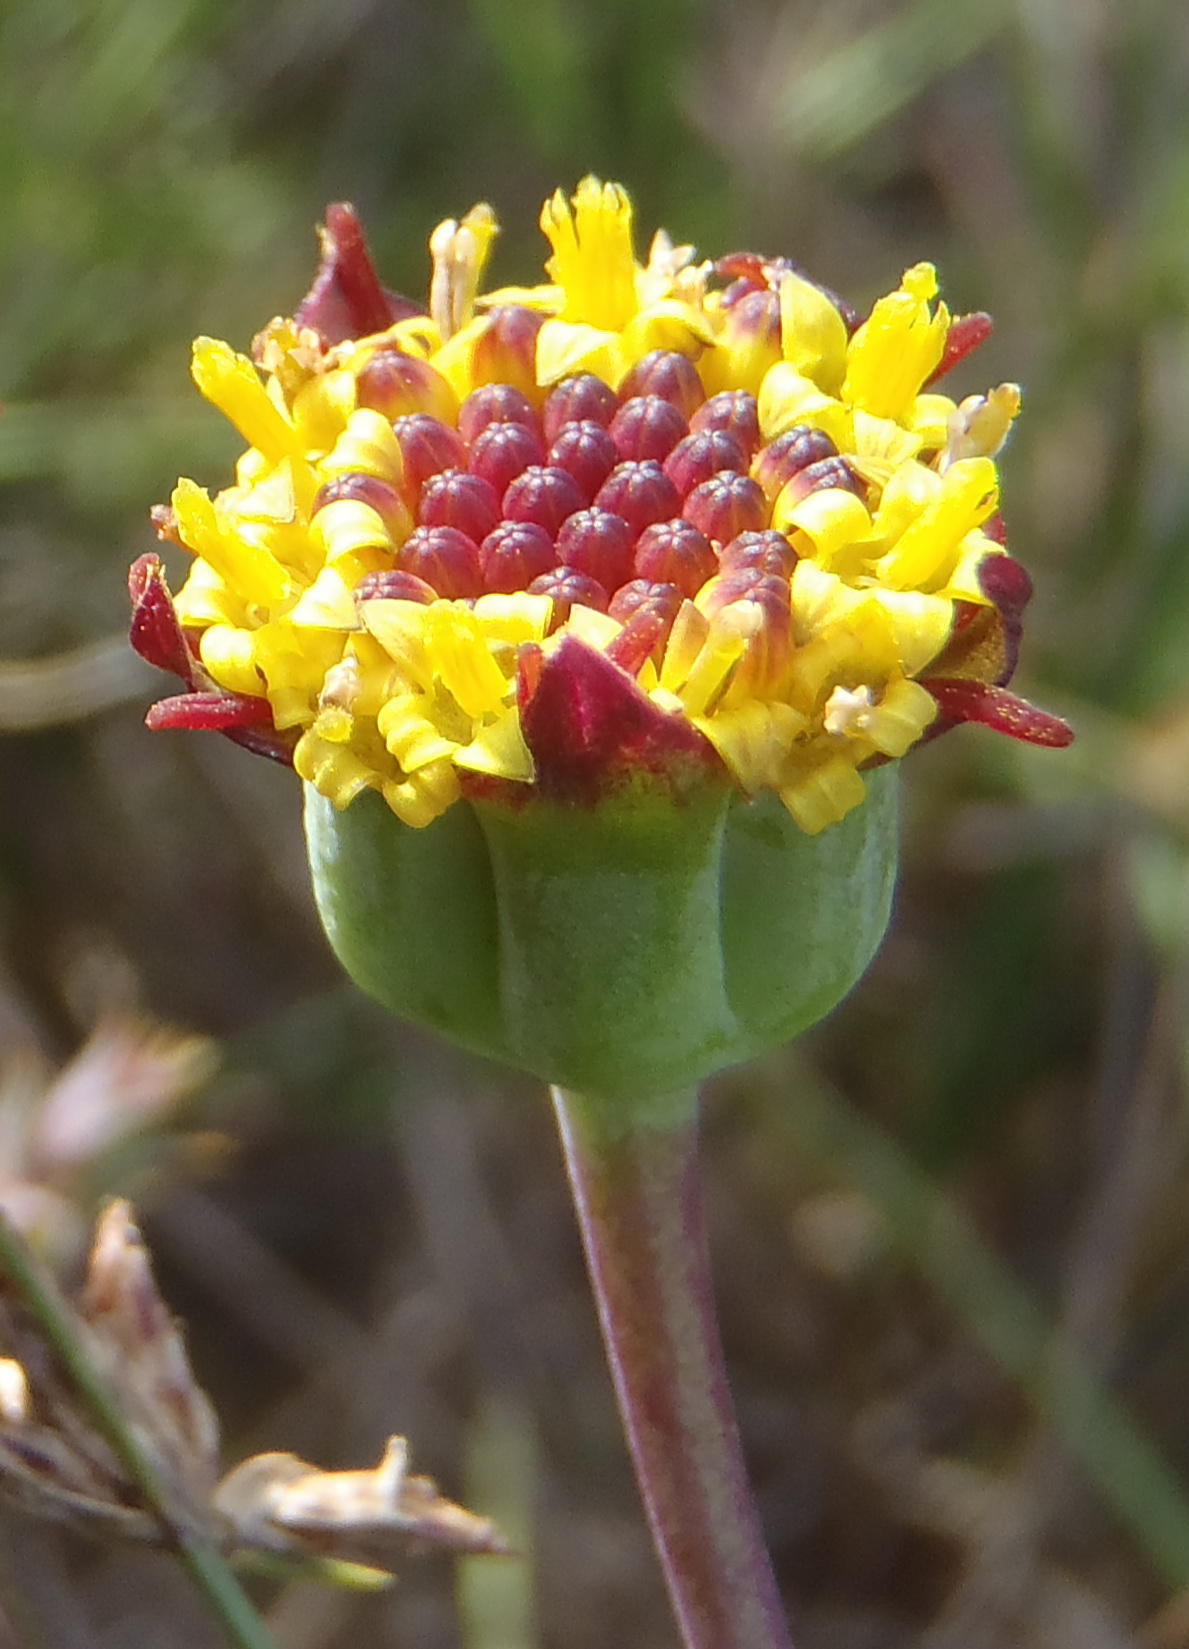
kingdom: Plantae
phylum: Tracheophyta
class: Magnoliopsida
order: Asterales
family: Asteraceae
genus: Othonna
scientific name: Othonna retrofracta
